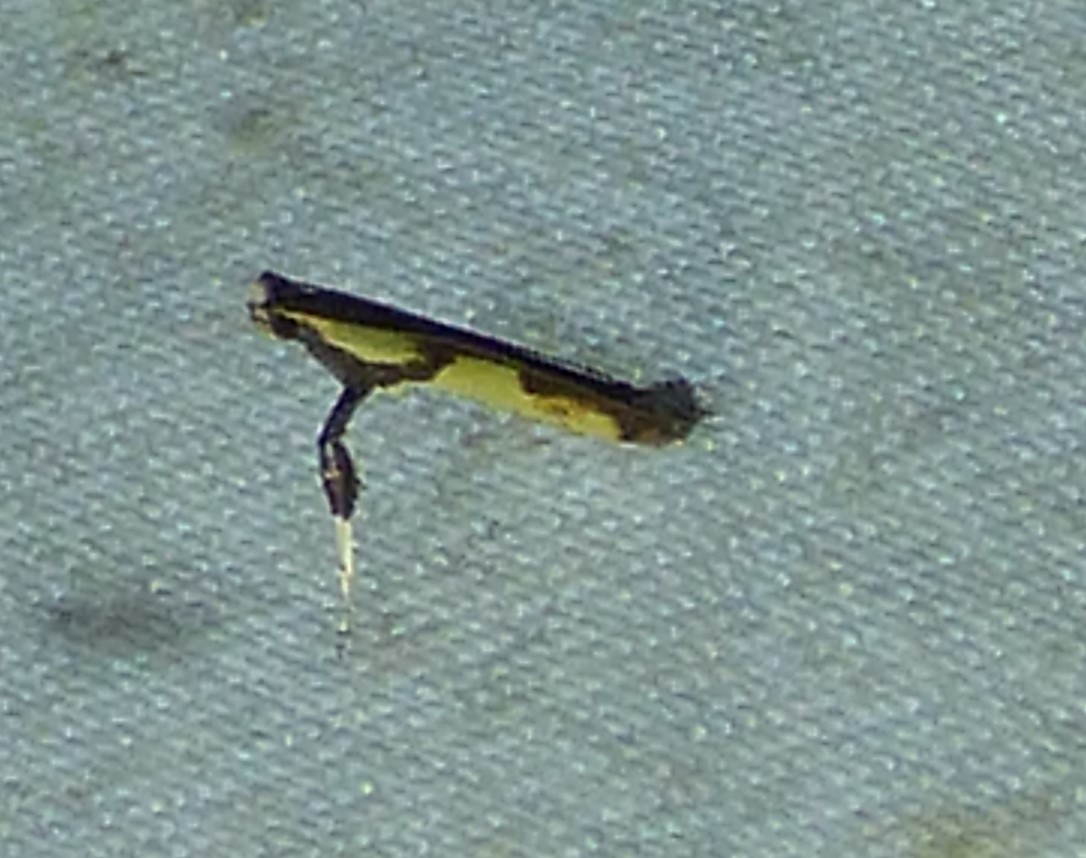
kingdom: Animalia
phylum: Arthropoda
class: Insecta
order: Lepidoptera
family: Gracillariidae
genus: Caloptilia
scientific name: Caloptilia blandella
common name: Walnut caloptilia moth
